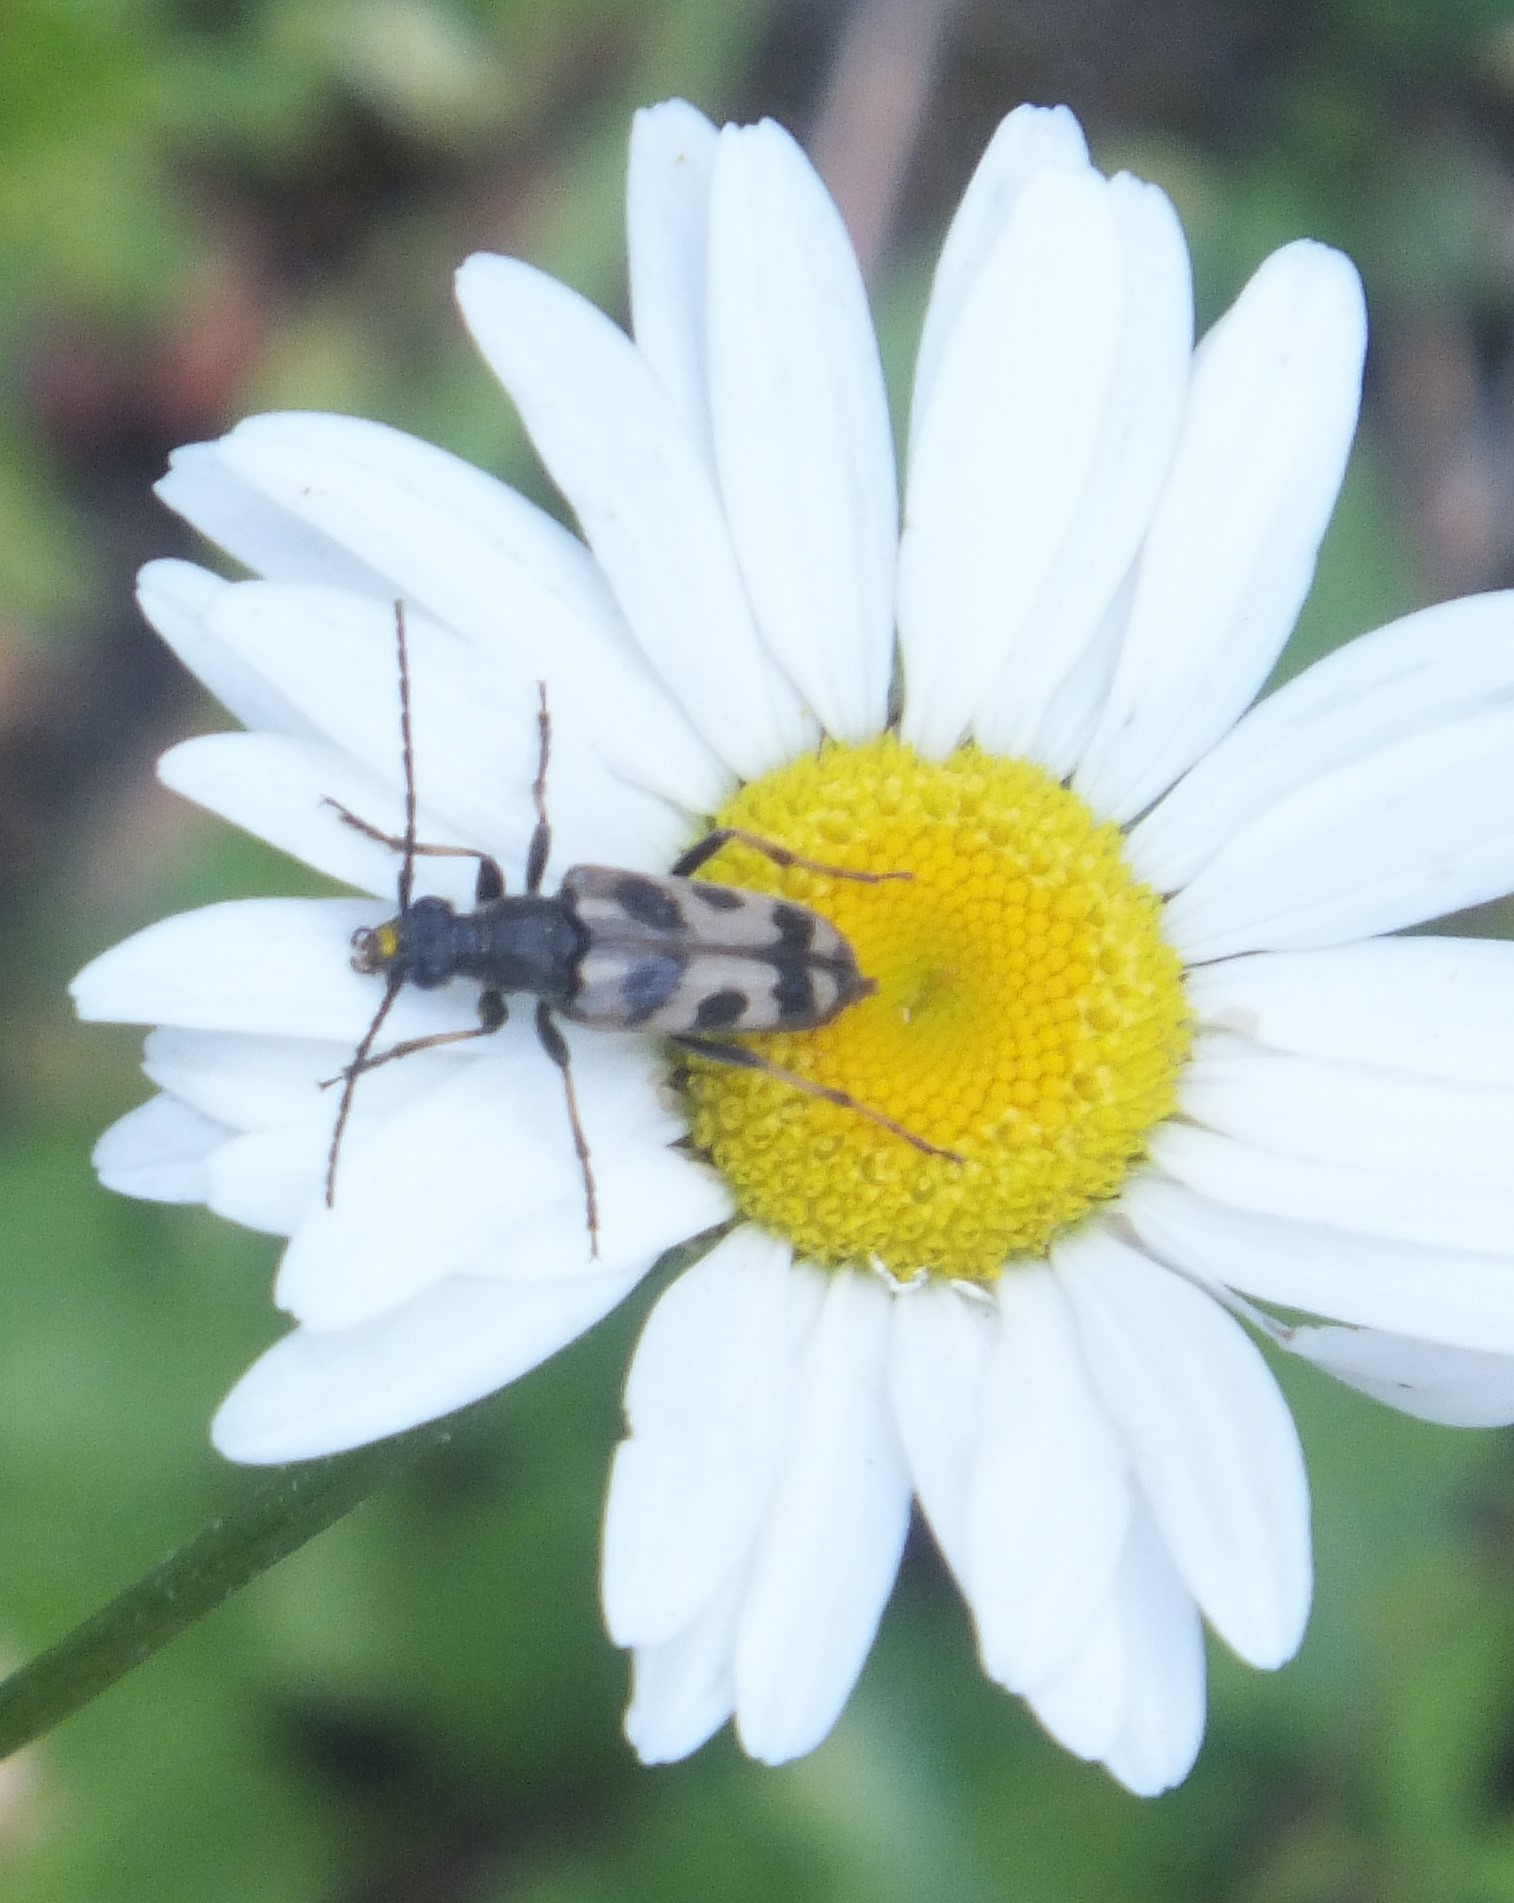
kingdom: Animalia
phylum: Arthropoda
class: Insecta
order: Coleoptera
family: Cerambycidae
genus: Xestoleptura
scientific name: Xestoleptura tibialis
